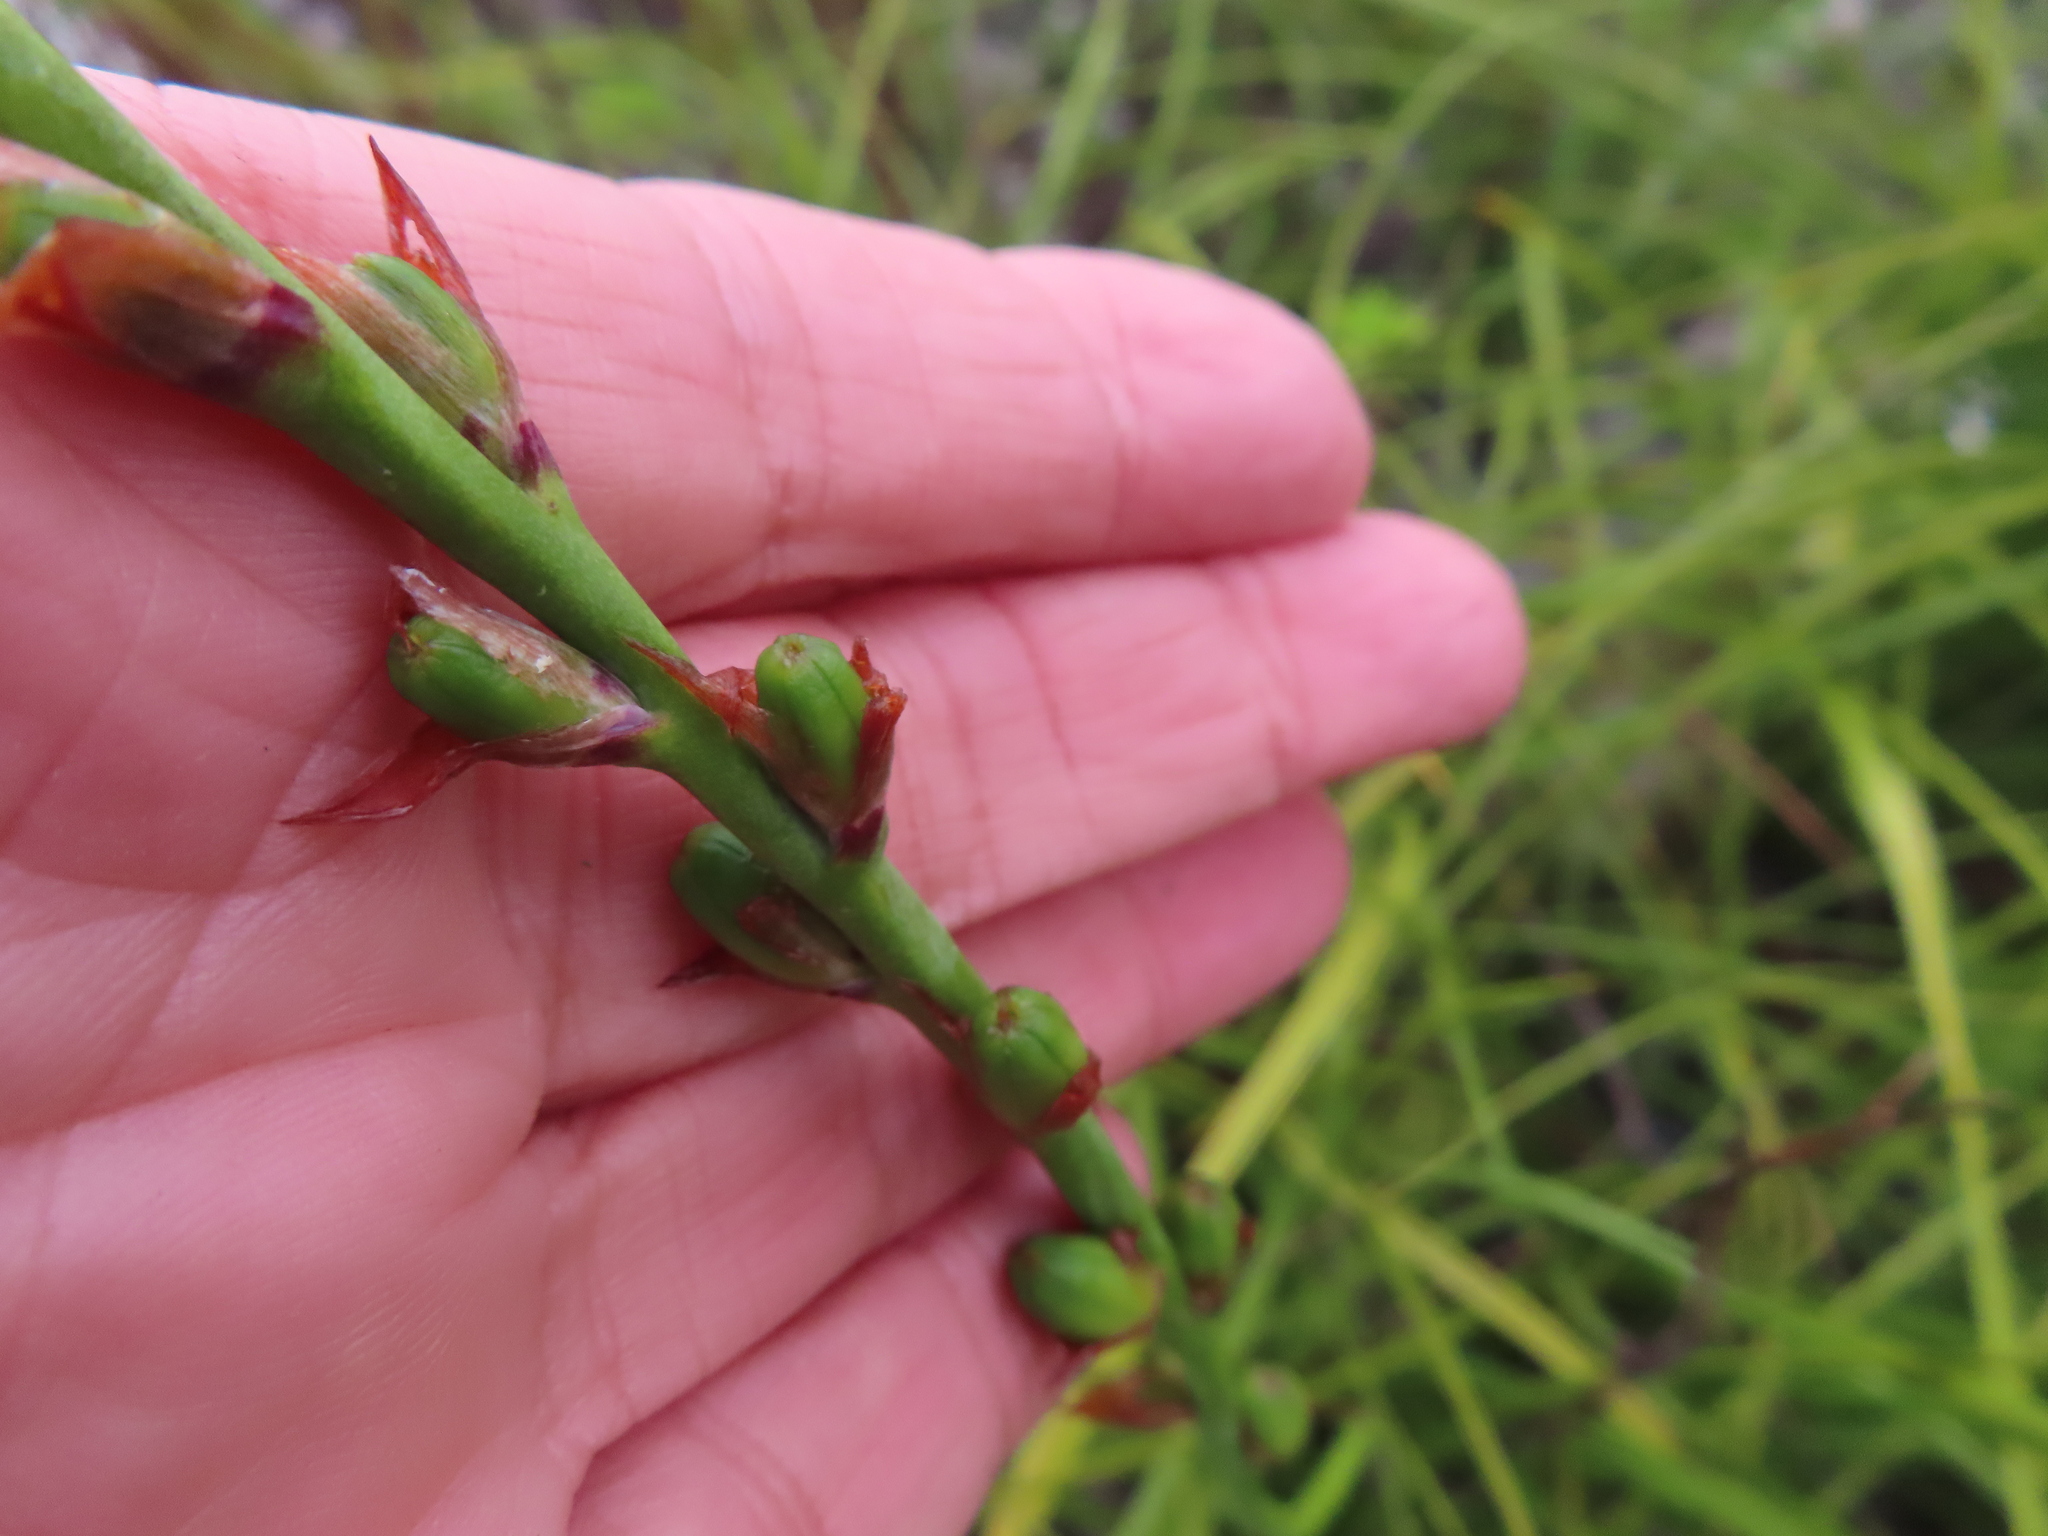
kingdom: Plantae
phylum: Tracheophyta
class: Liliopsida
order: Asparagales
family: Iridaceae
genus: Tritoniopsis
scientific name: Tritoniopsis lata
